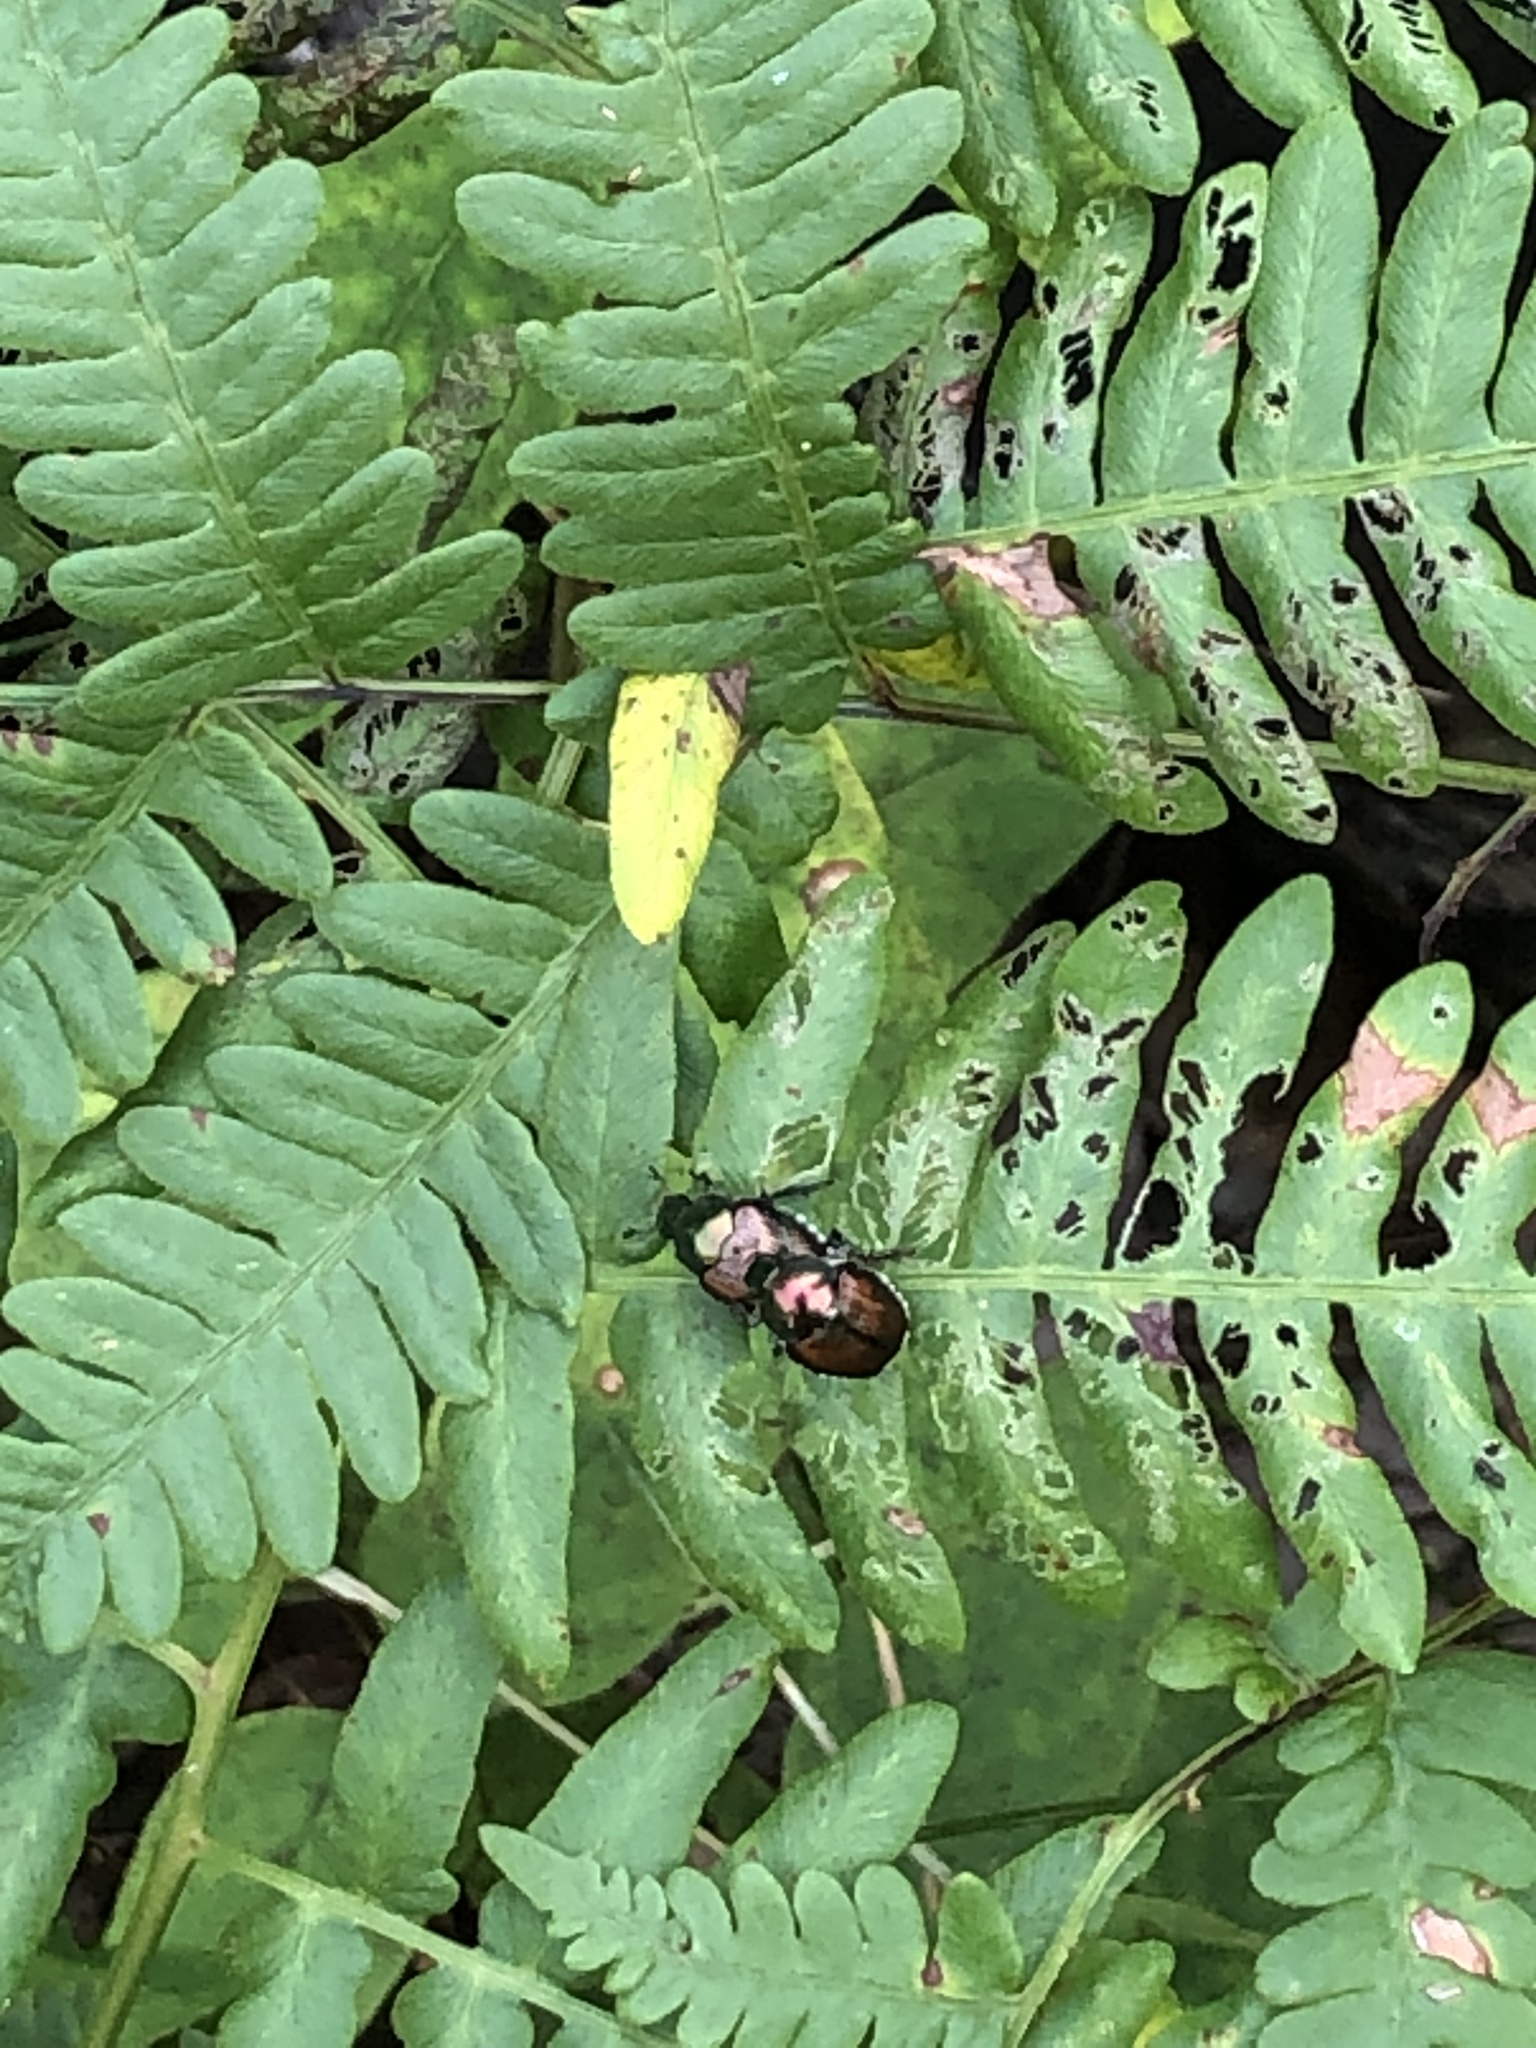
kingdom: Plantae
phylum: Tracheophyta
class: Polypodiopsida
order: Polypodiales
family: Dennstaedtiaceae
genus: Pteridium
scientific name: Pteridium aquilinum
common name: Bracken
